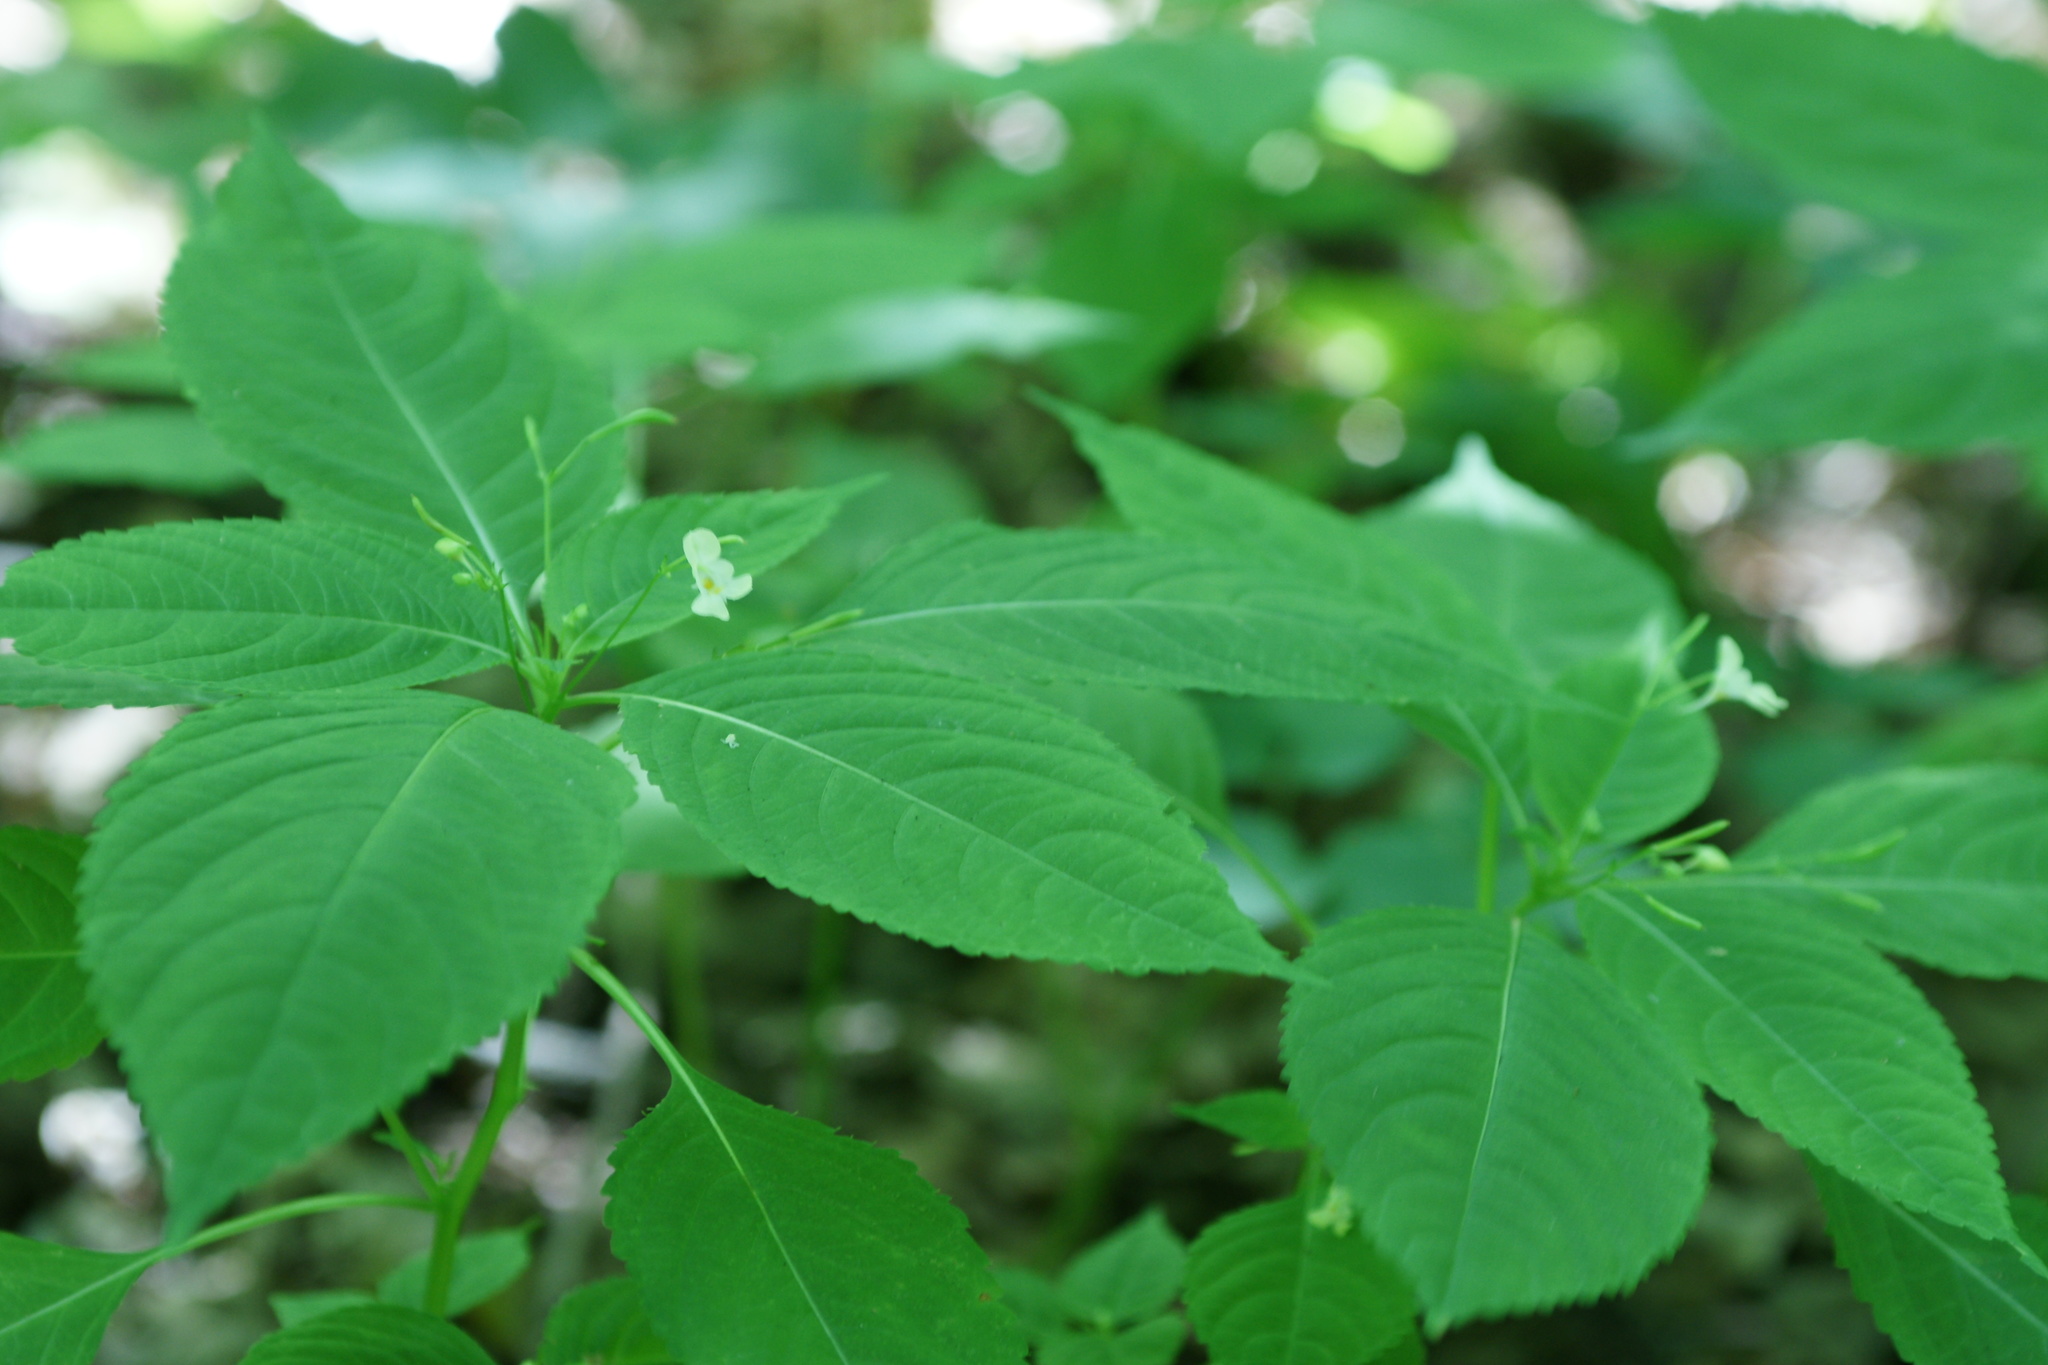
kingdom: Plantae
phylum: Tracheophyta
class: Magnoliopsida
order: Ericales
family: Balsaminaceae
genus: Impatiens
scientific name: Impatiens parviflora
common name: Small balsam
